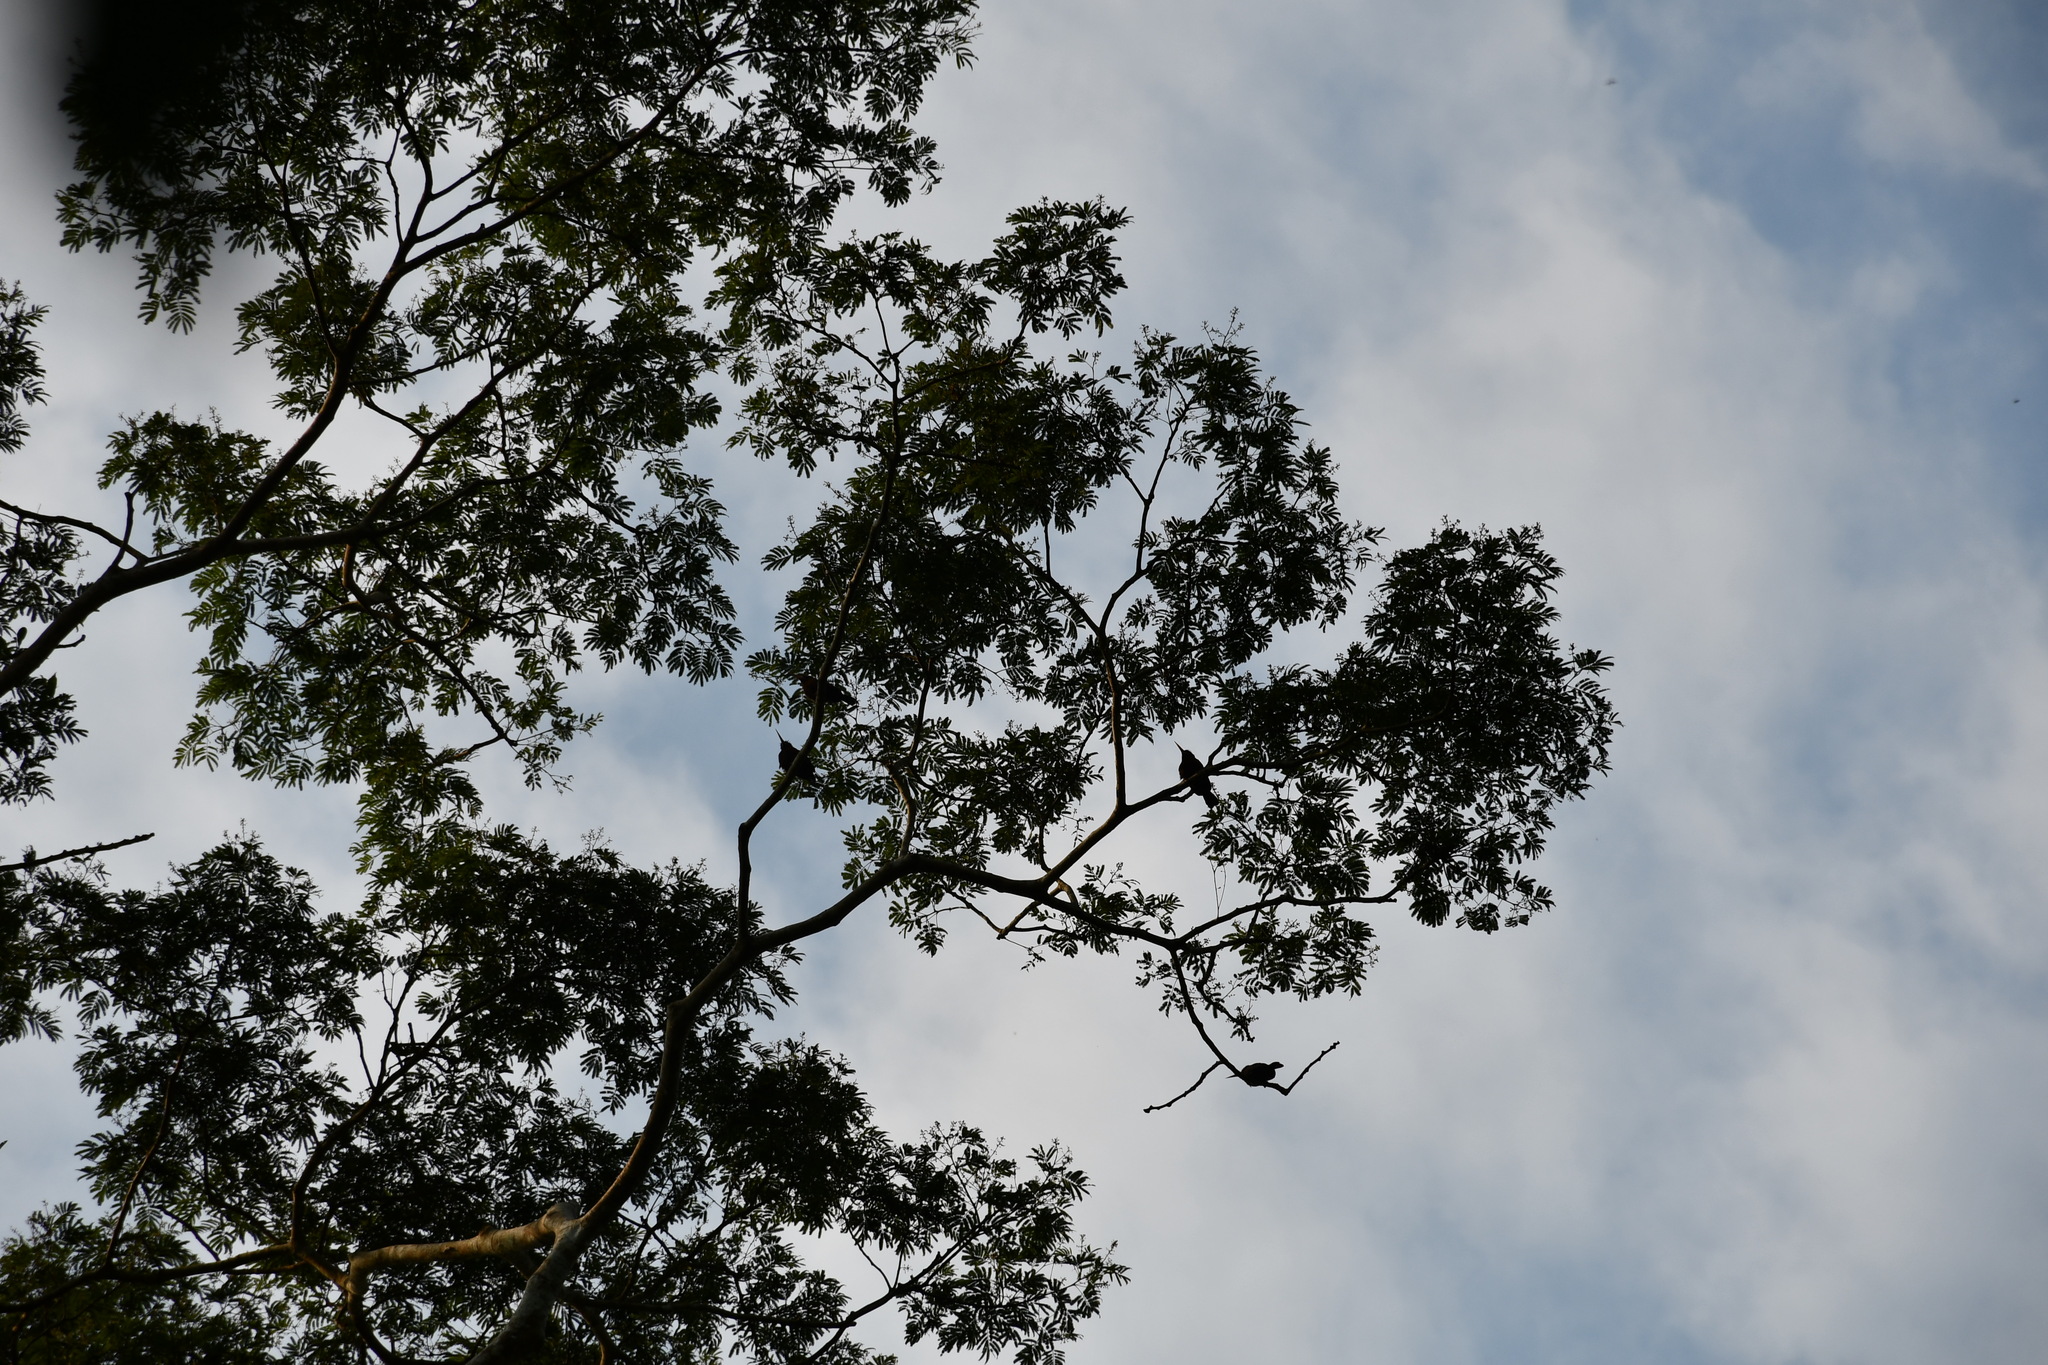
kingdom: Animalia
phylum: Chordata
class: Aves
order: Piciformes
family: Galbulidae
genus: Galbalcyrhynchus
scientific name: Galbalcyrhynchus purusianus
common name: Purus jacamar
